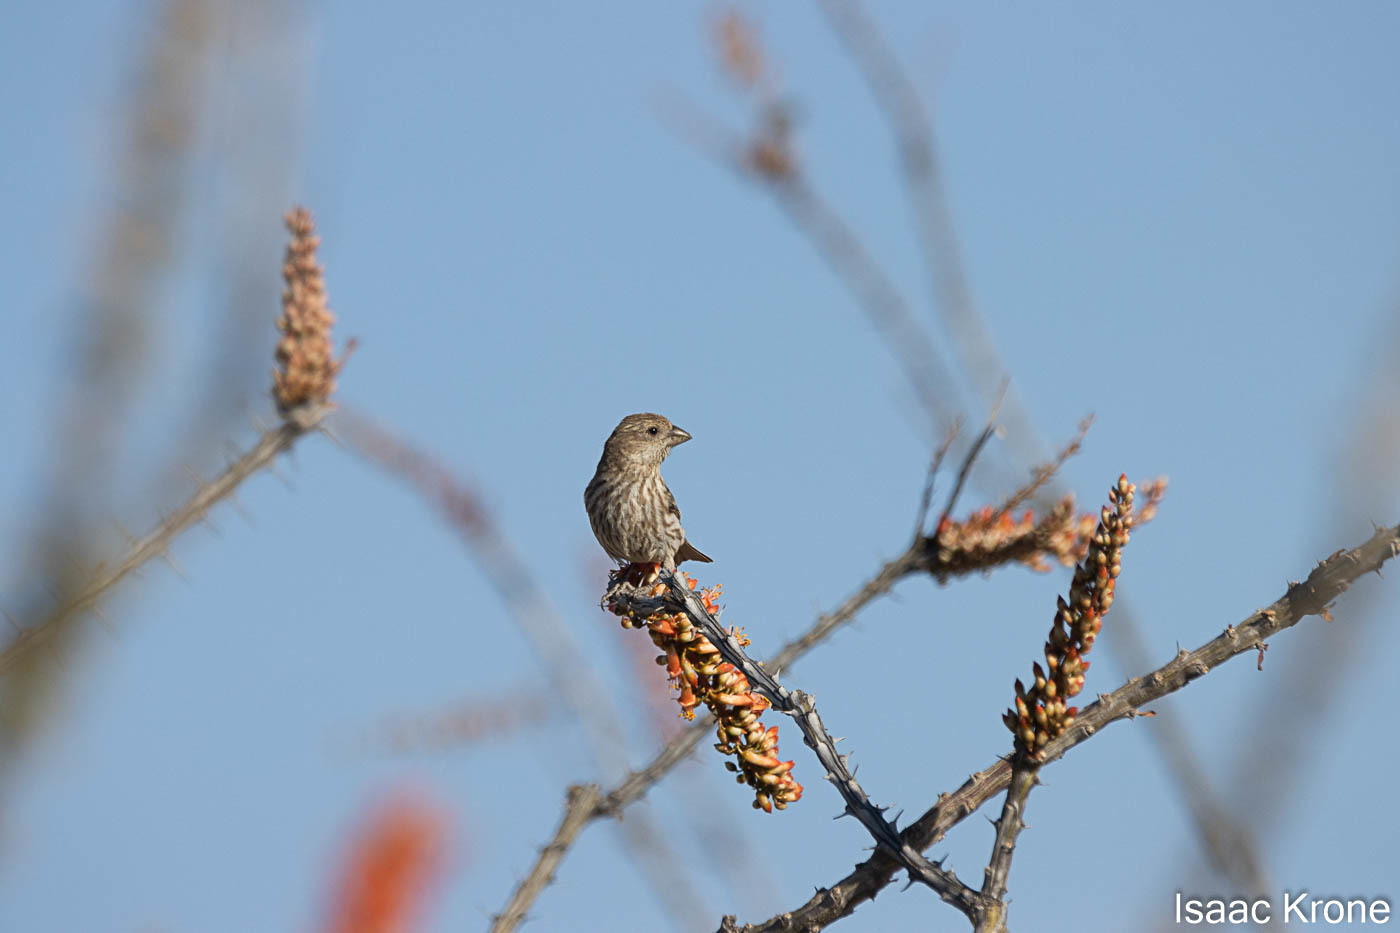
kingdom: Animalia
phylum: Chordata
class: Aves
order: Passeriformes
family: Fringillidae
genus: Haemorhous
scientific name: Haemorhous mexicanus
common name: House finch
